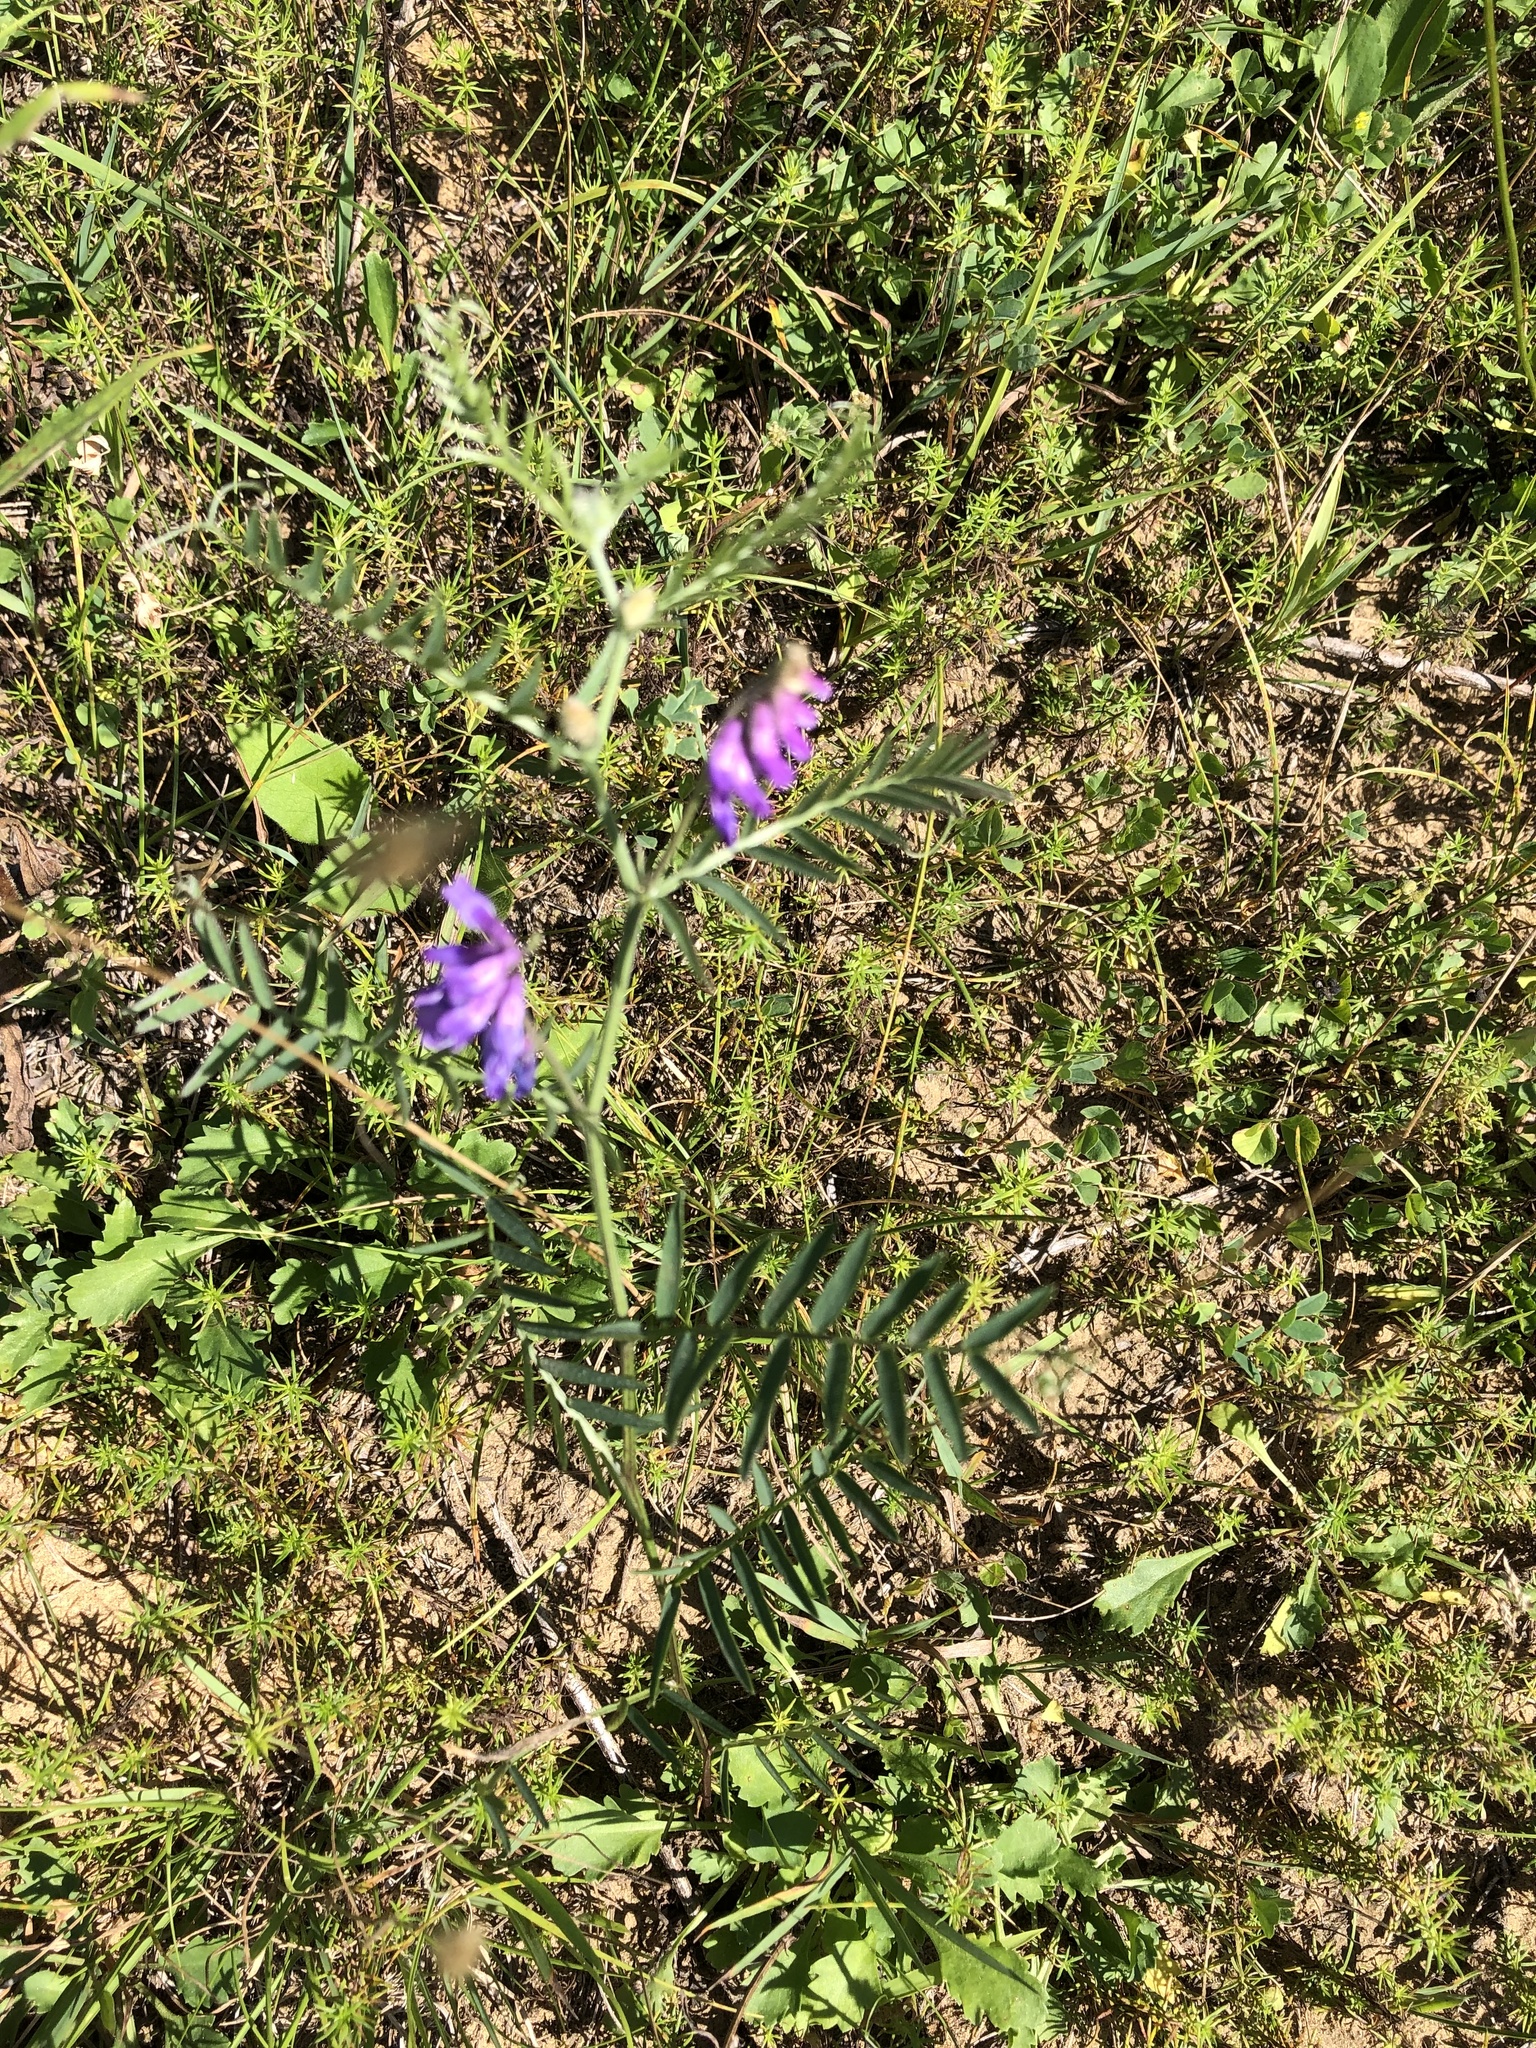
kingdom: Plantae
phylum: Tracheophyta
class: Magnoliopsida
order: Fabales
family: Fabaceae
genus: Vicia
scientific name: Vicia cracca
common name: Bird vetch
